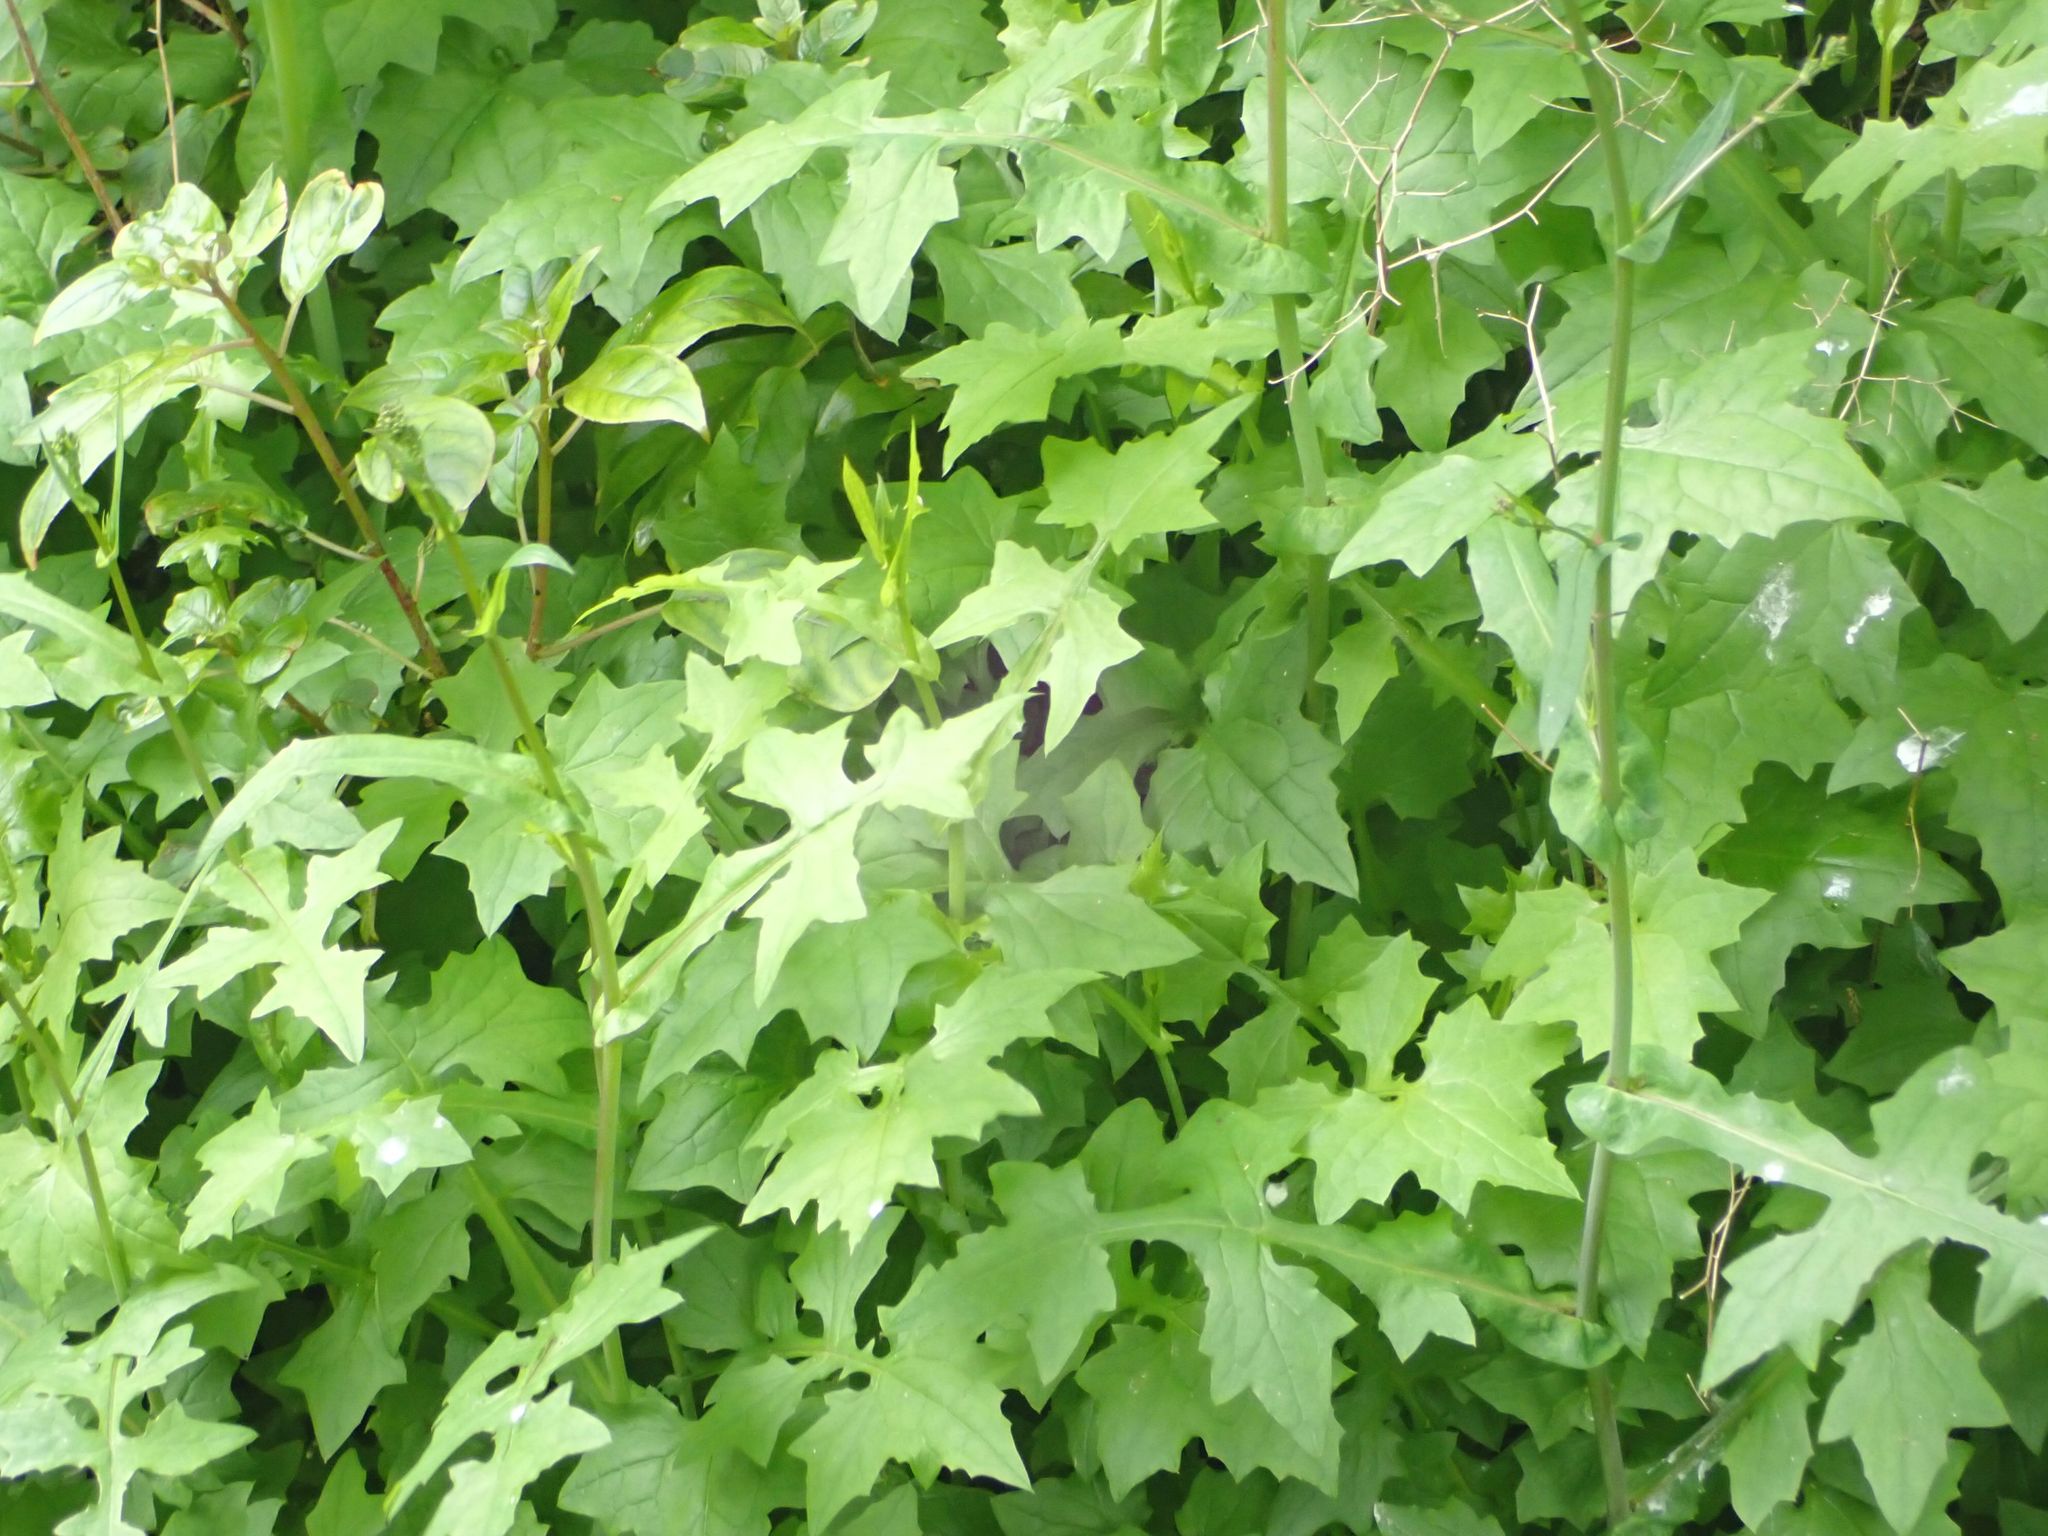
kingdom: Plantae
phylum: Tracheophyta
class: Magnoliopsida
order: Asterales
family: Asteraceae
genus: Mycelis
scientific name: Mycelis muralis
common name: Wall lettuce
